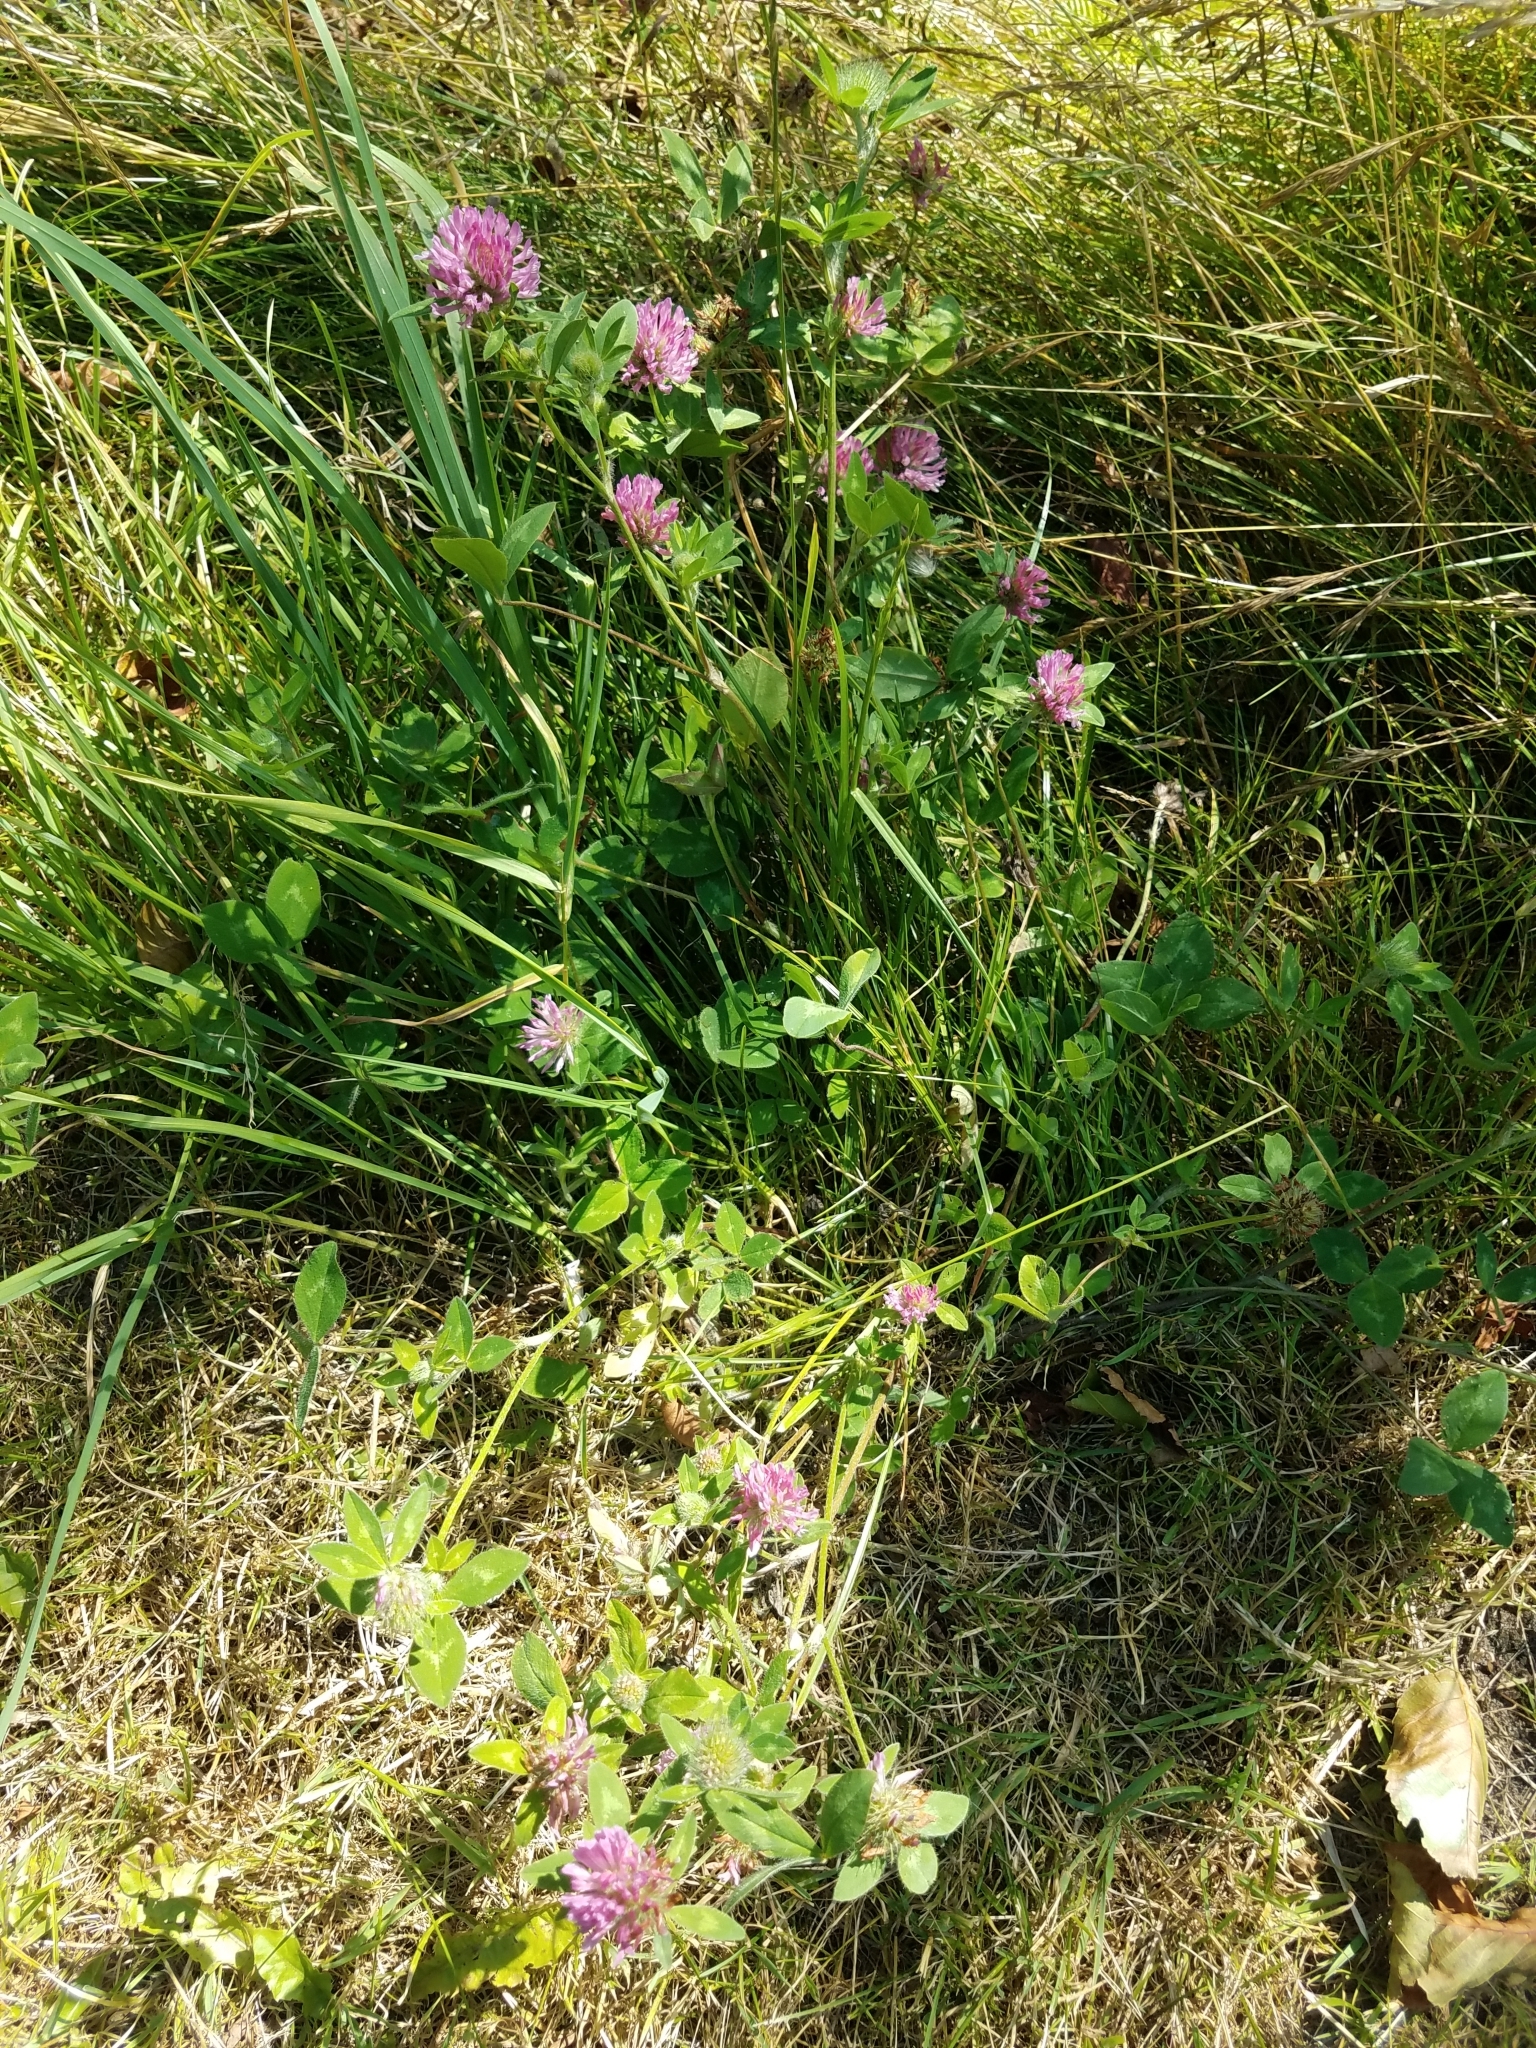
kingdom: Plantae
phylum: Tracheophyta
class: Magnoliopsida
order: Fabales
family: Fabaceae
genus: Trifolium
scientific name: Trifolium pratense
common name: Red clover
